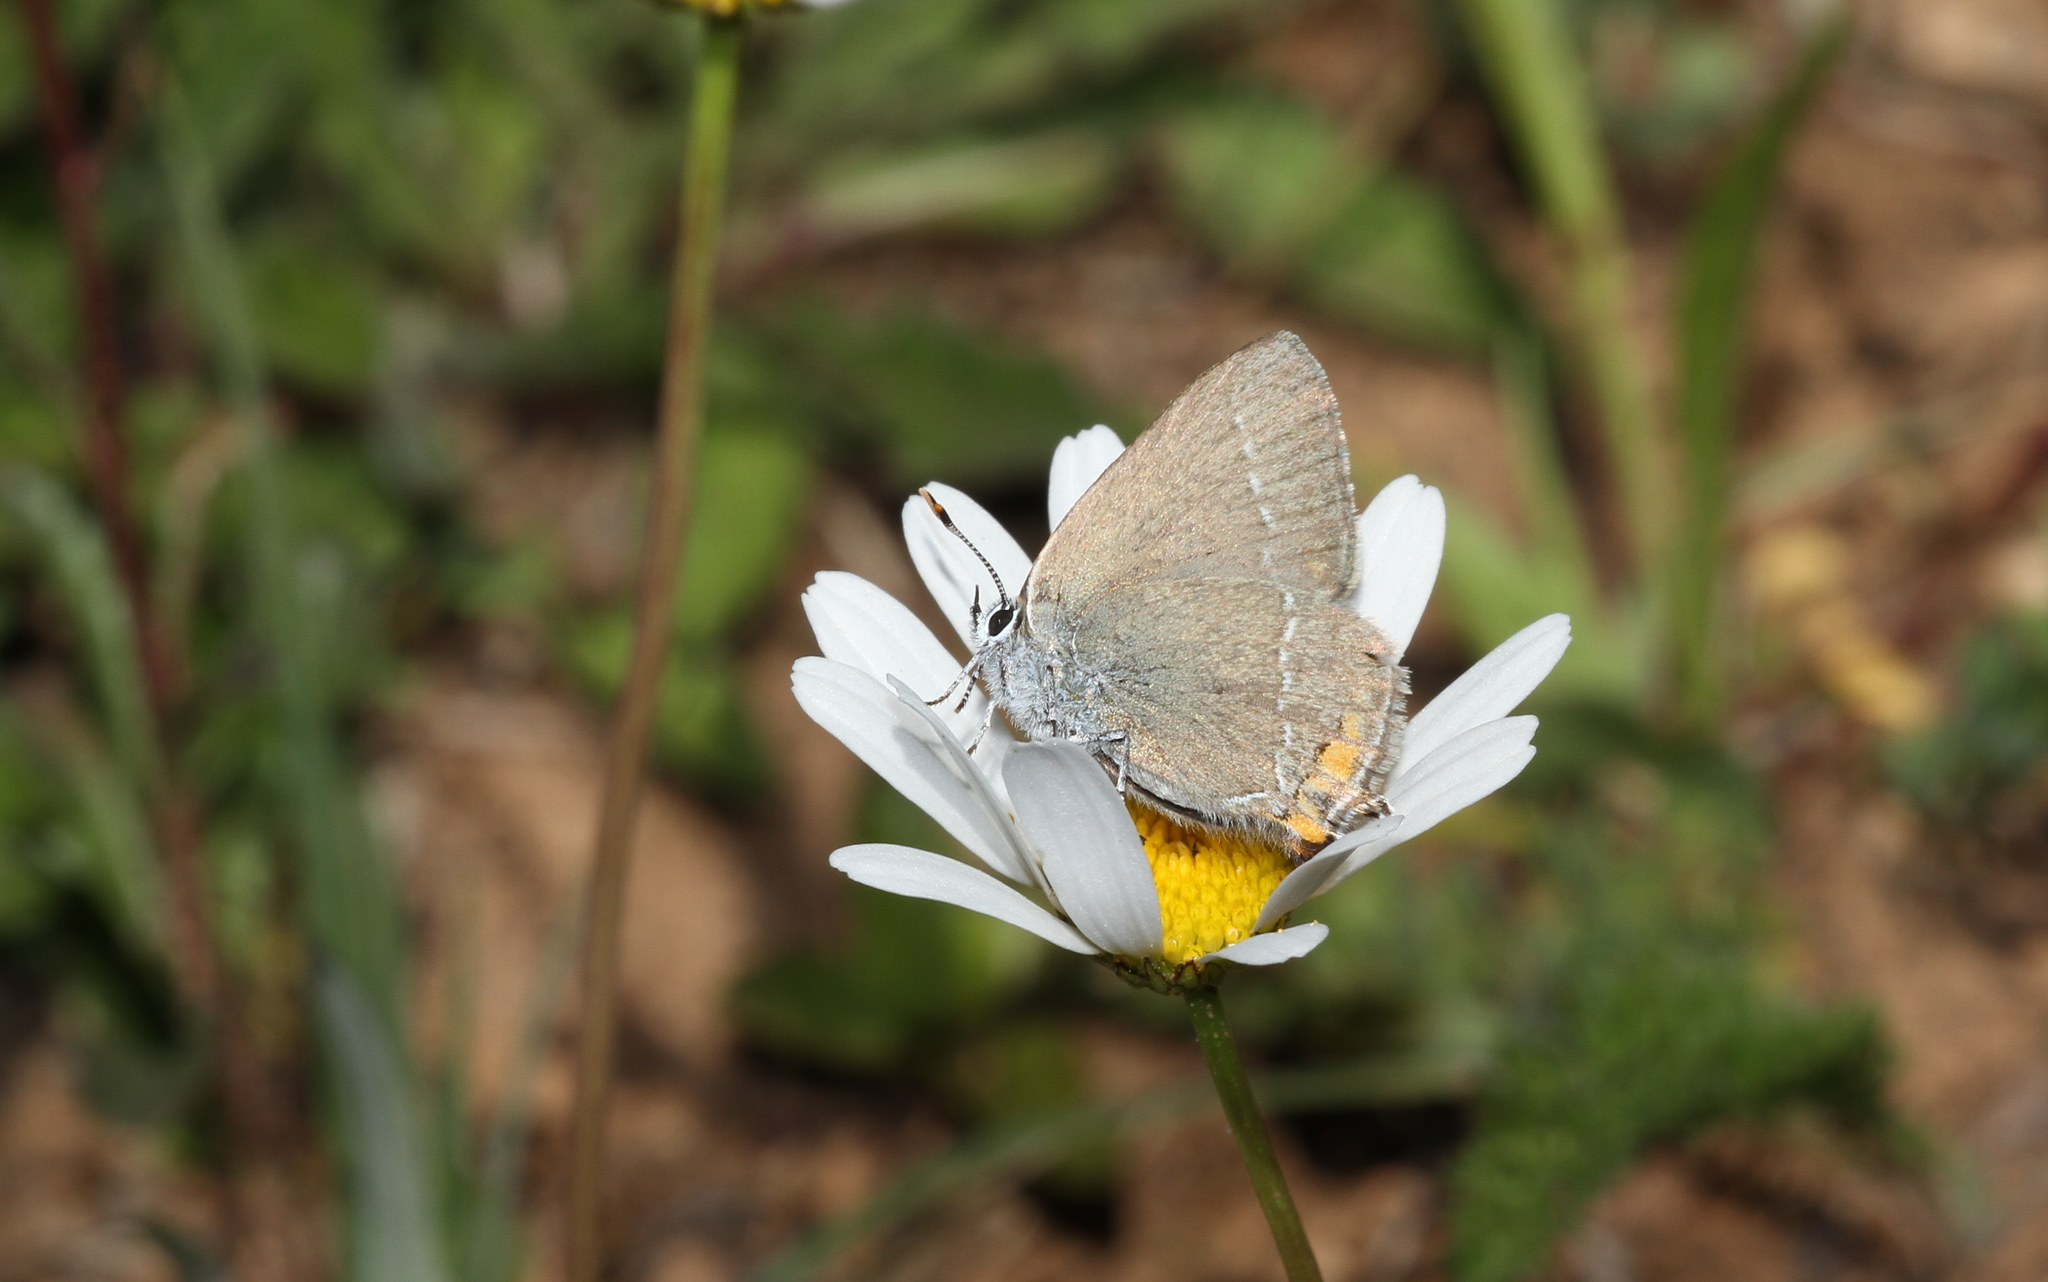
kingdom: Animalia
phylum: Arthropoda
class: Insecta
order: Lepidoptera
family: Lycaenidae
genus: Strymon
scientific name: Strymon acaciae
